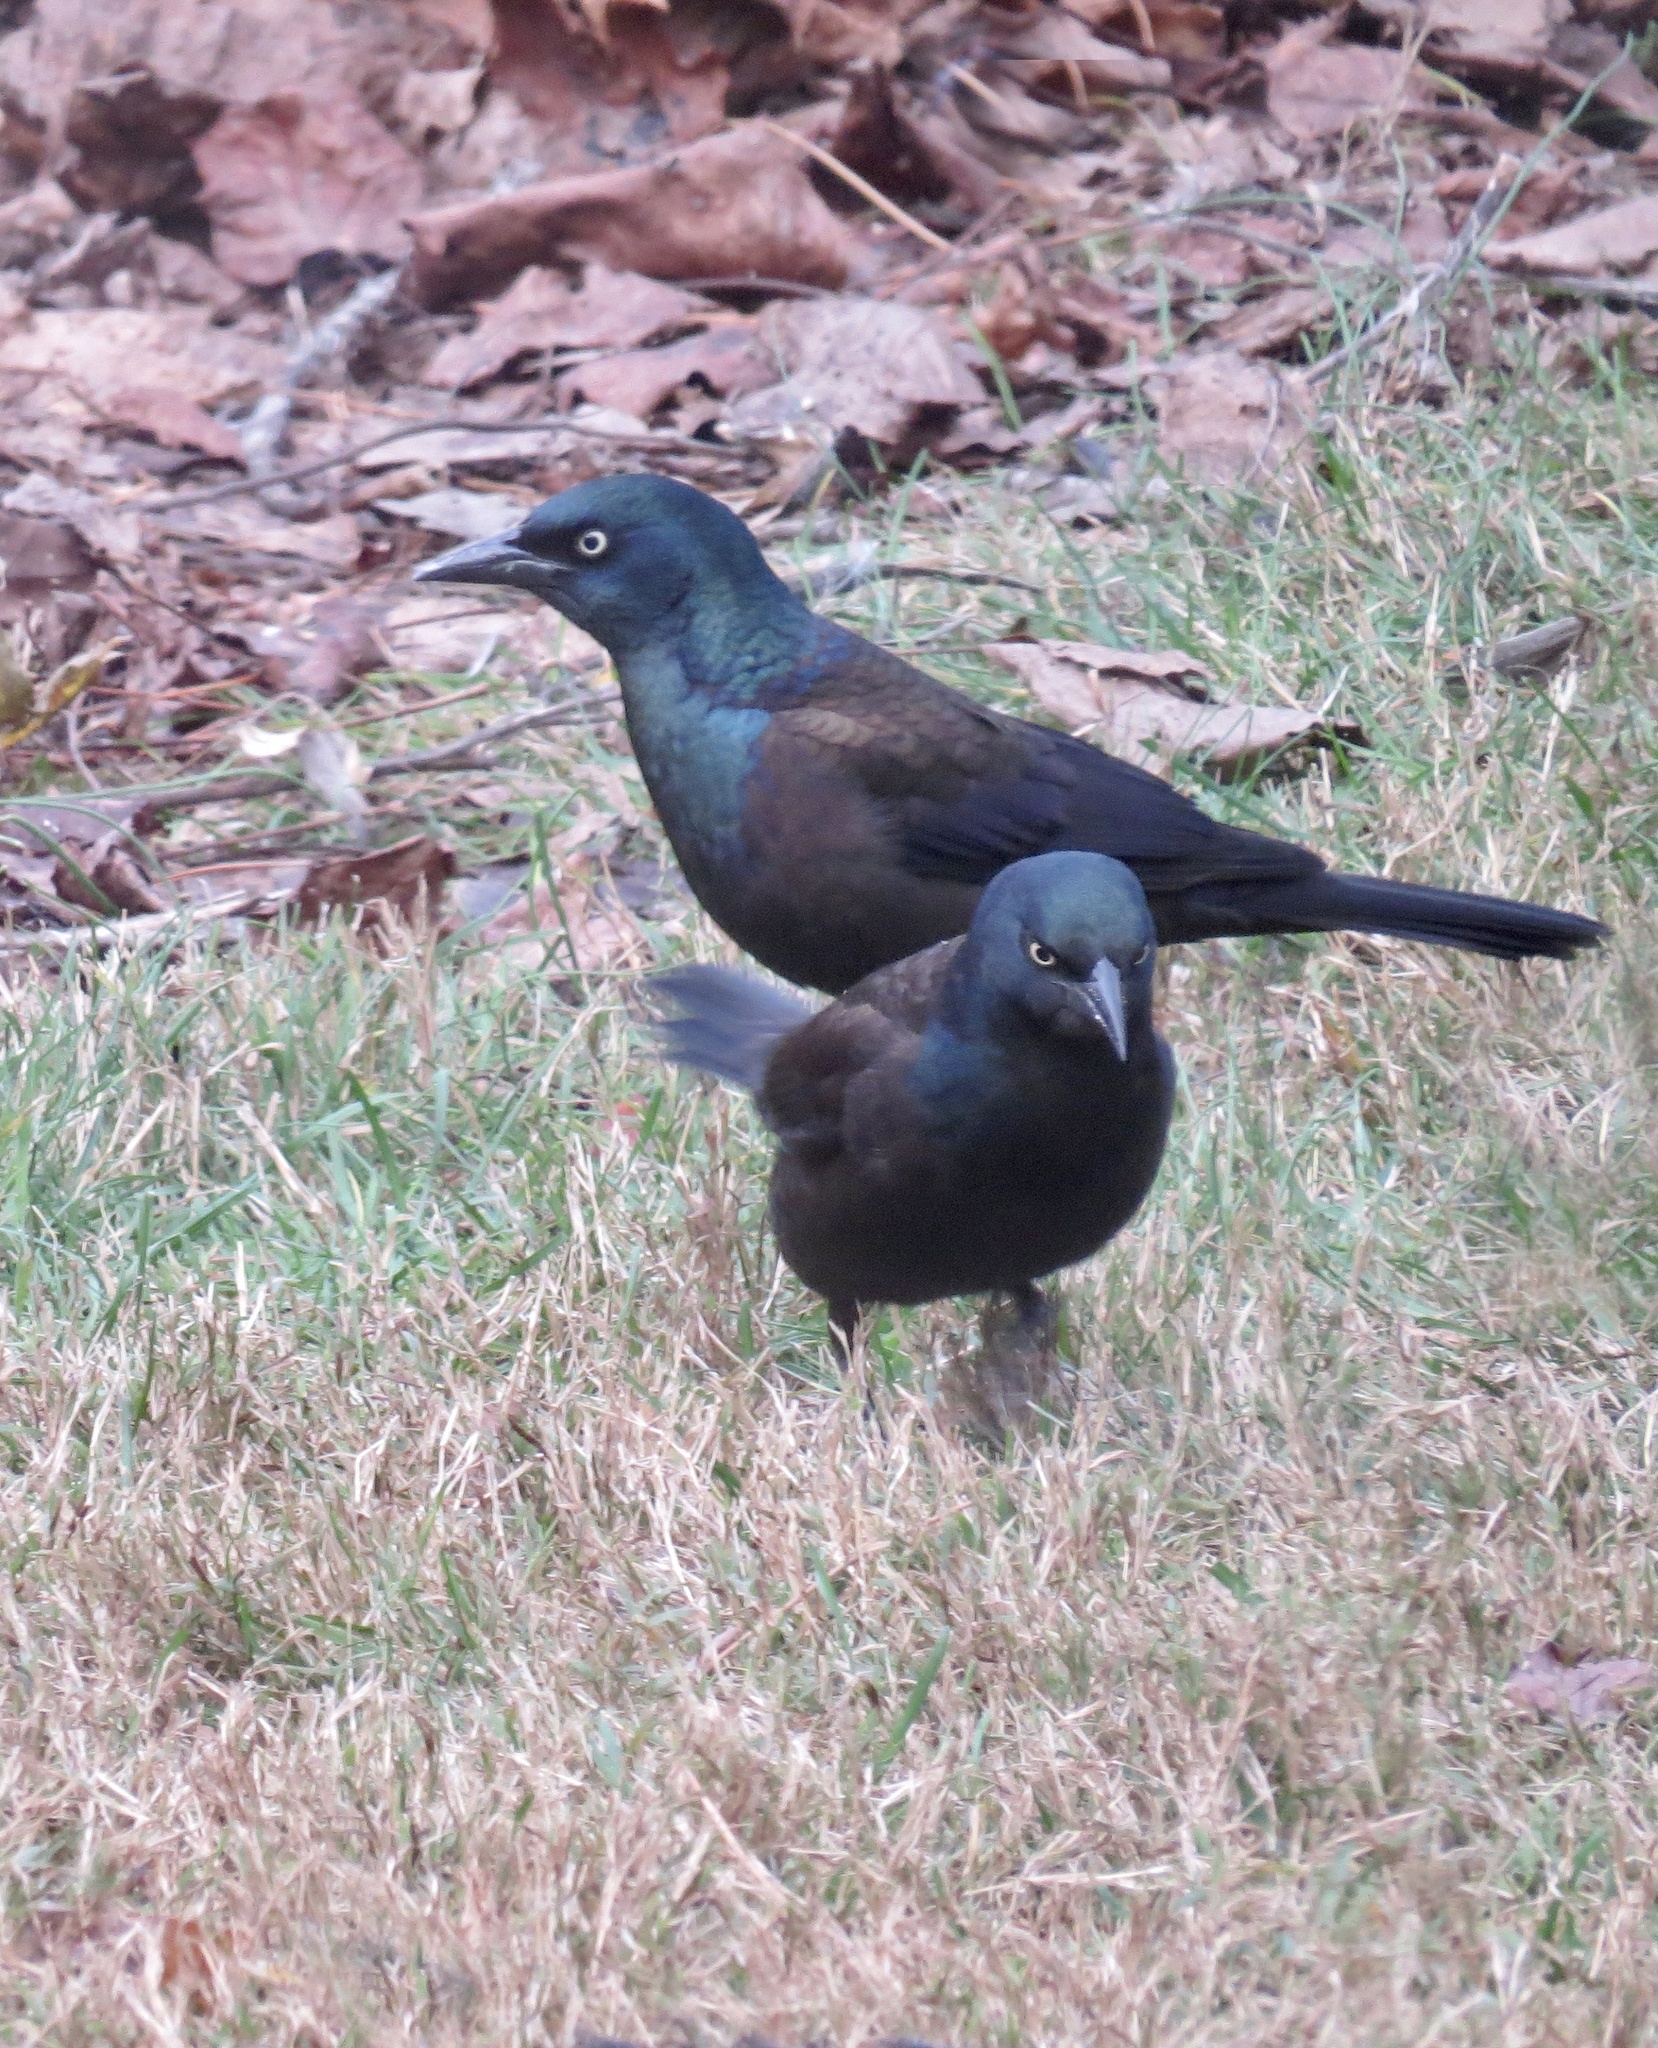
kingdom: Animalia
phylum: Chordata
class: Aves
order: Passeriformes
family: Icteridae
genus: Quiscalus
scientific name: Quiscalus quiscula
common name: Common grackle
